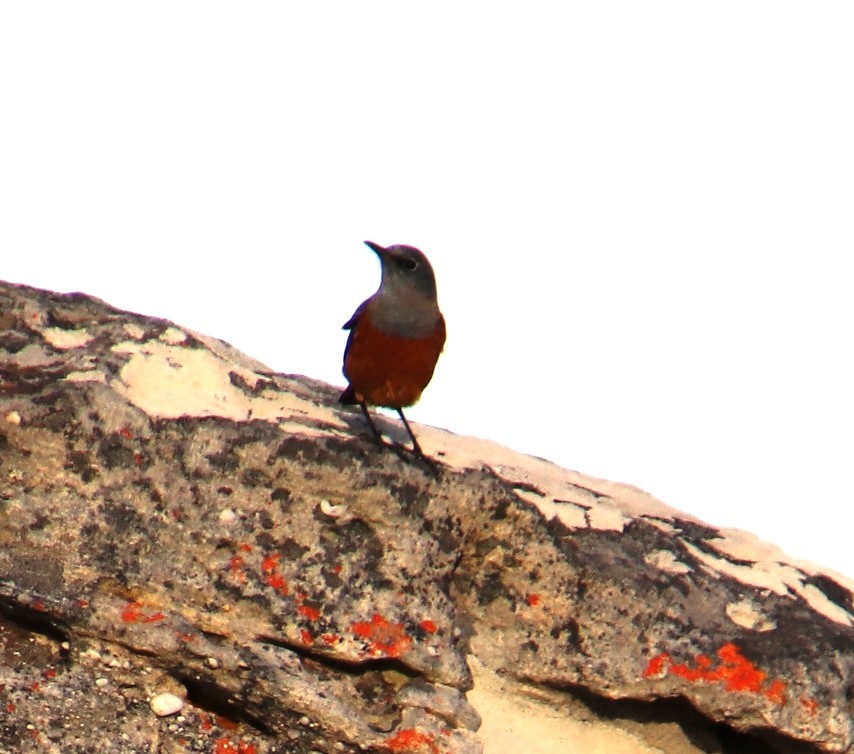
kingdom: Animalia
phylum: Chordata
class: Aves
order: Passeriformes
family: Muscicapidae
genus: Monticola
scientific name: Monticola explorator
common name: Sentinel rock thrush
